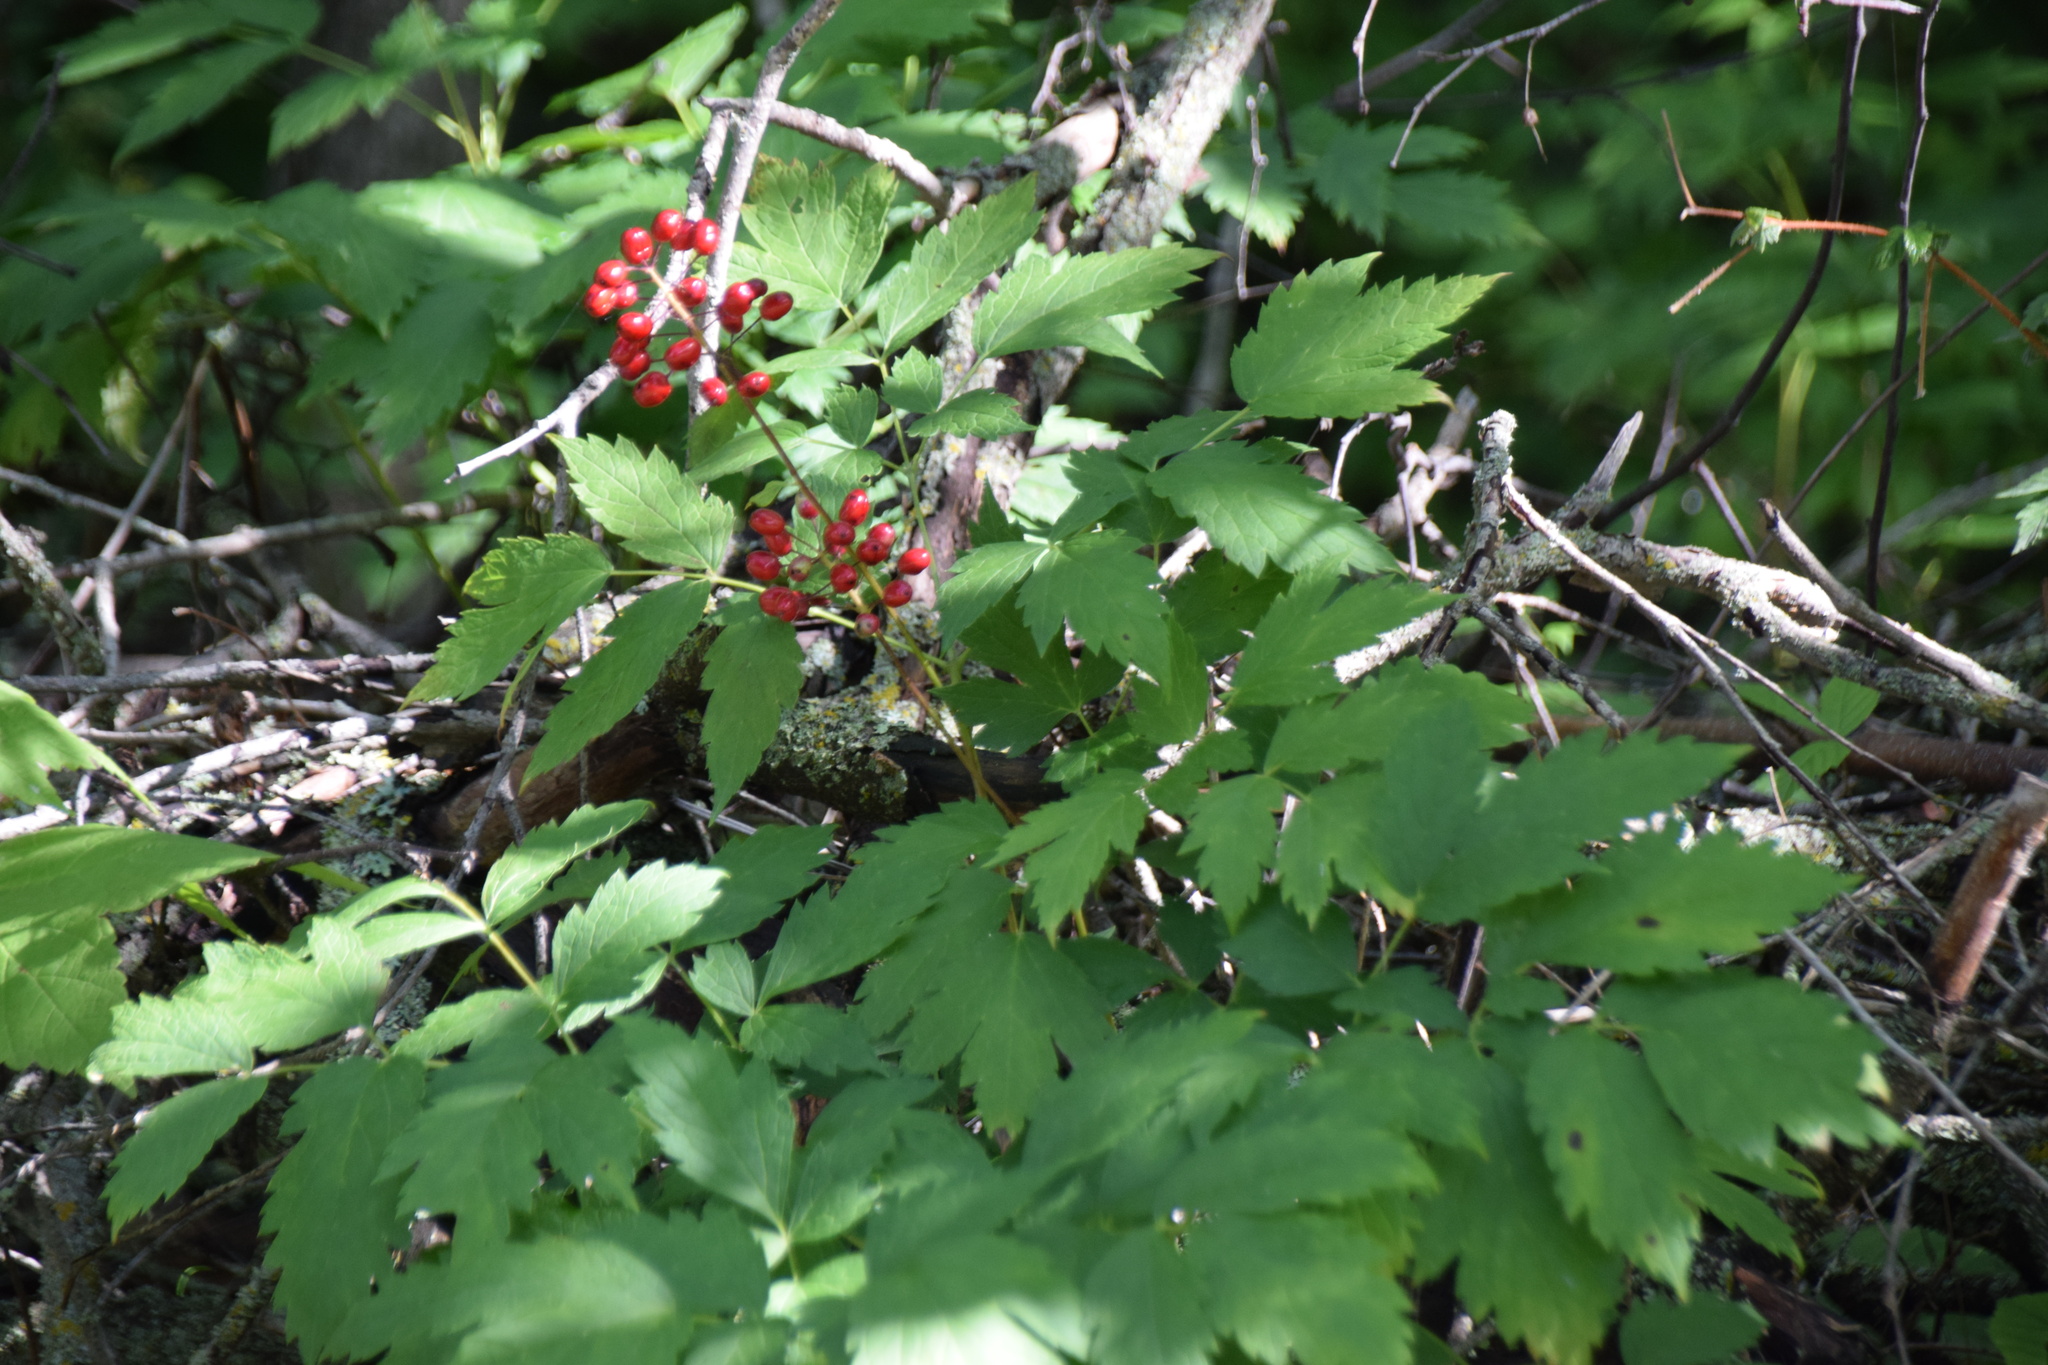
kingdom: Plantae
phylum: Tracheophyta
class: Magnoliopsida
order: Ranunculales
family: Ranunculaceae
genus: Actaea
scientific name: Actaea rubra
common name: Red baneberry
